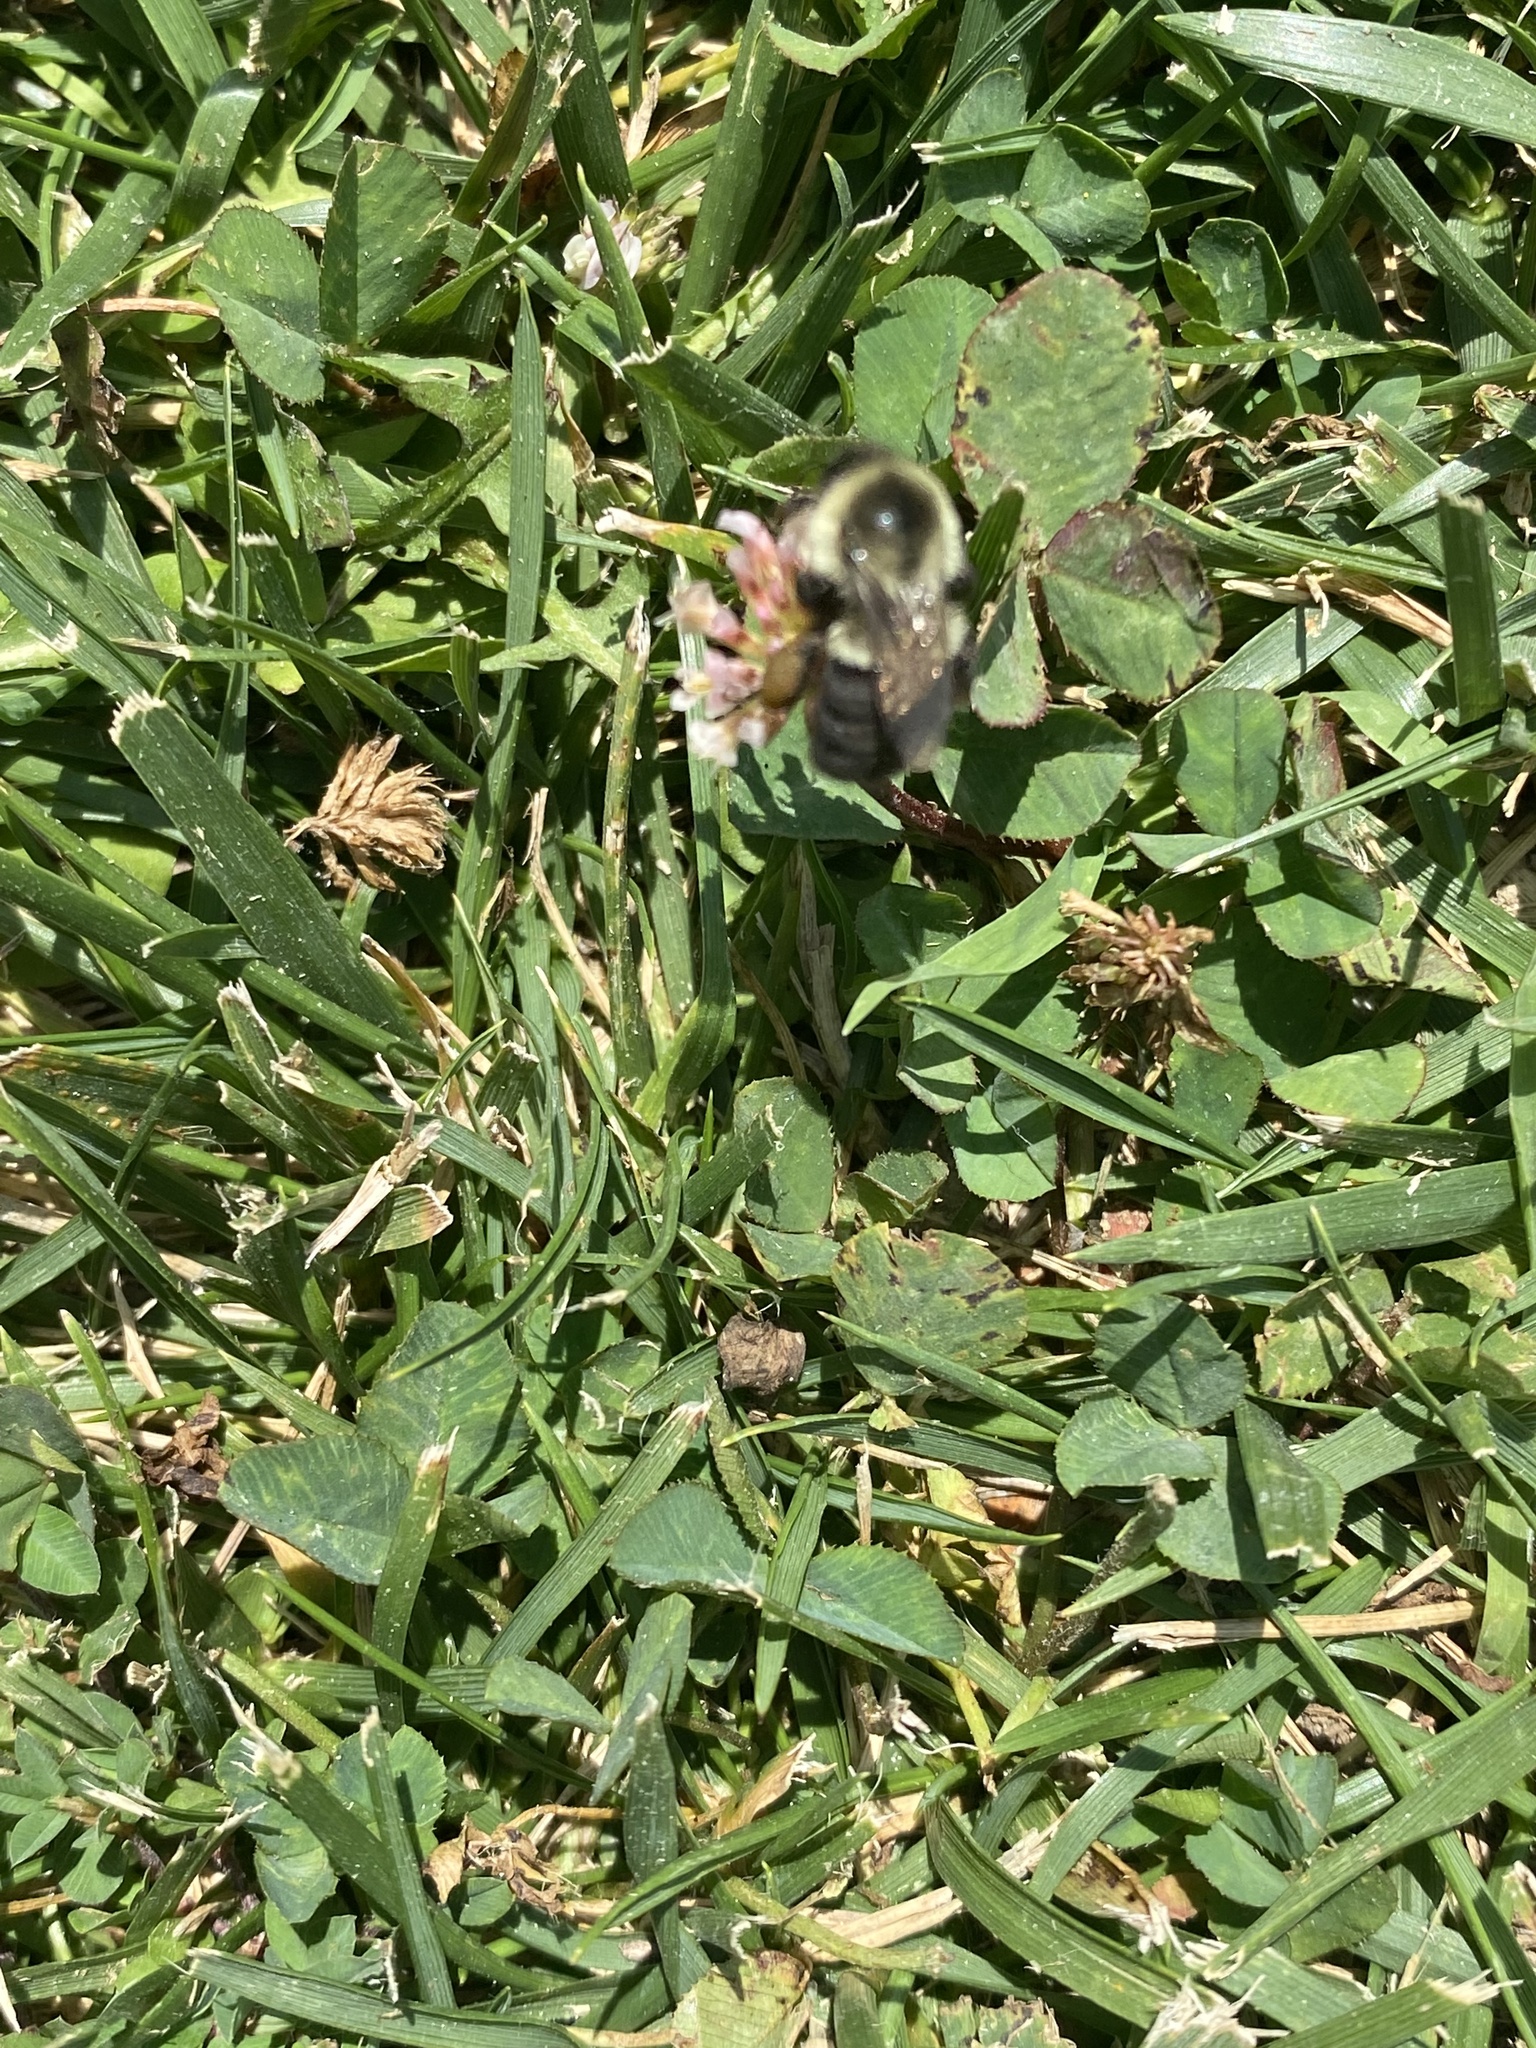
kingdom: Animalia
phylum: Arthropoda
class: Insecta
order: Hymenoptera
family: Apidae
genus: Bombus
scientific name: Bombus impatiens
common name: Common eastern bumble bee
